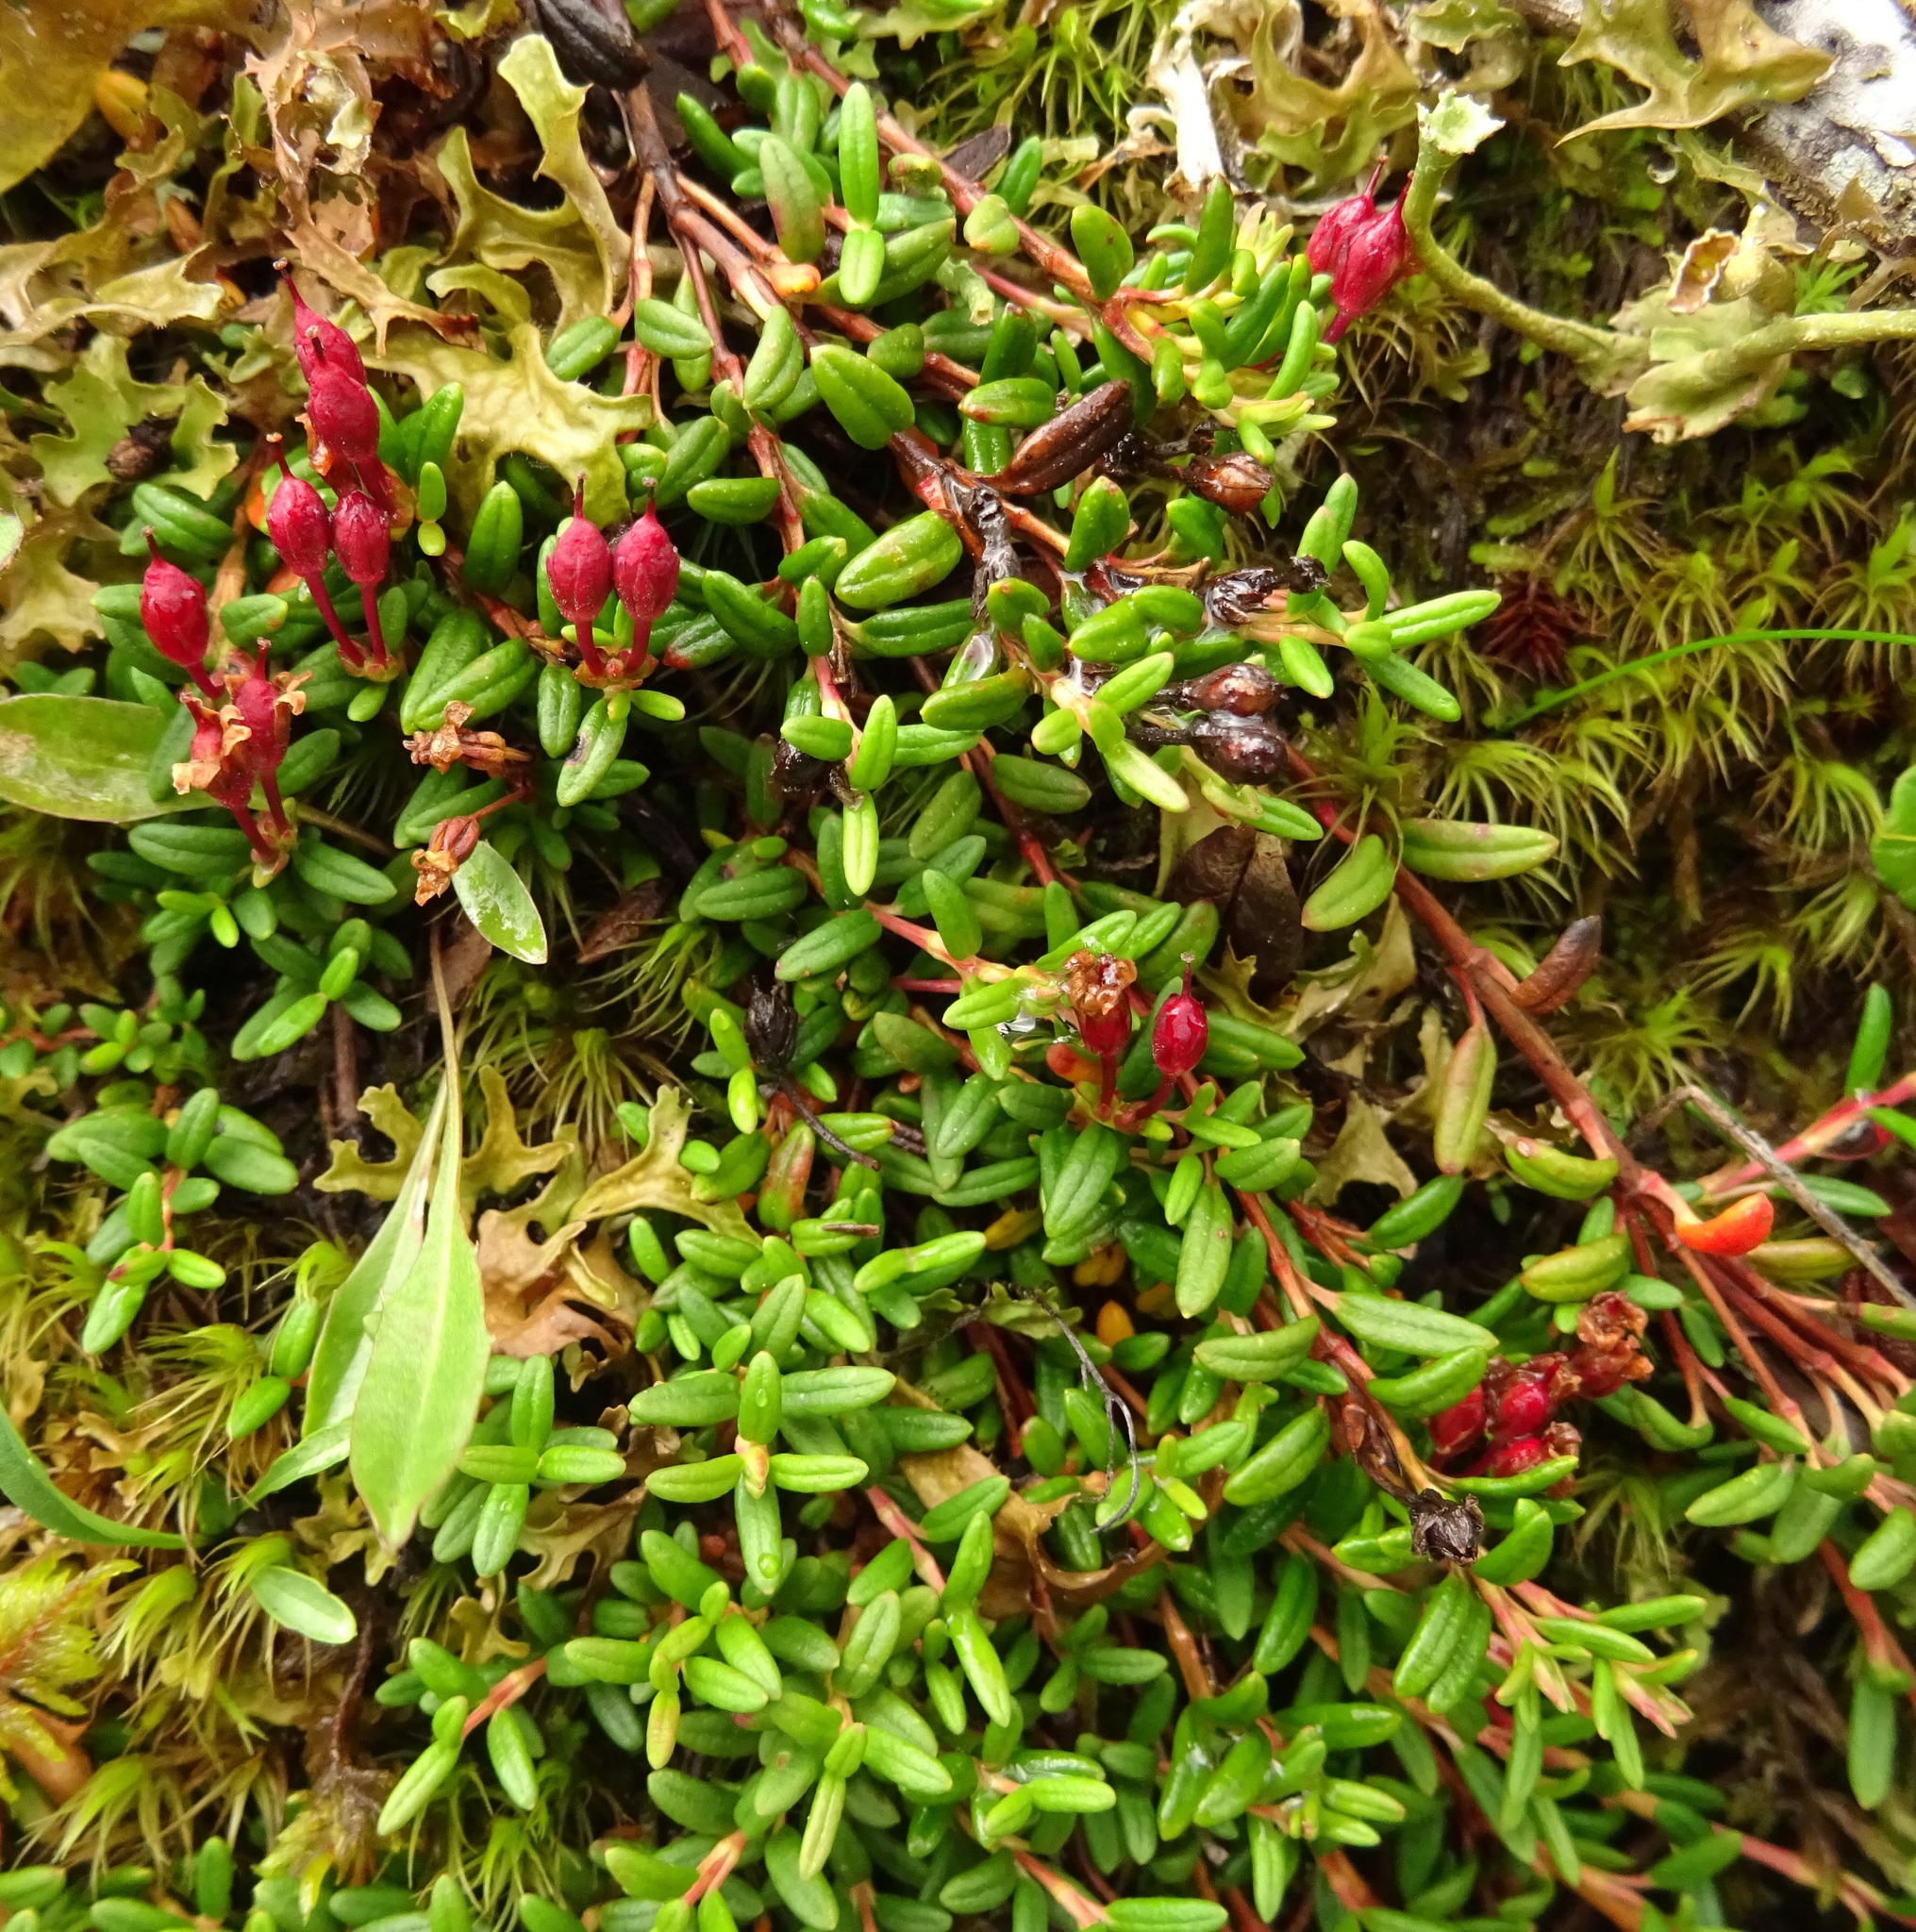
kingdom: Plantae
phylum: Tracheophyta
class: Magnoliopsida
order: Ericales
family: Ericaceae
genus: Kalmia
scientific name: Kalmia procumbens
